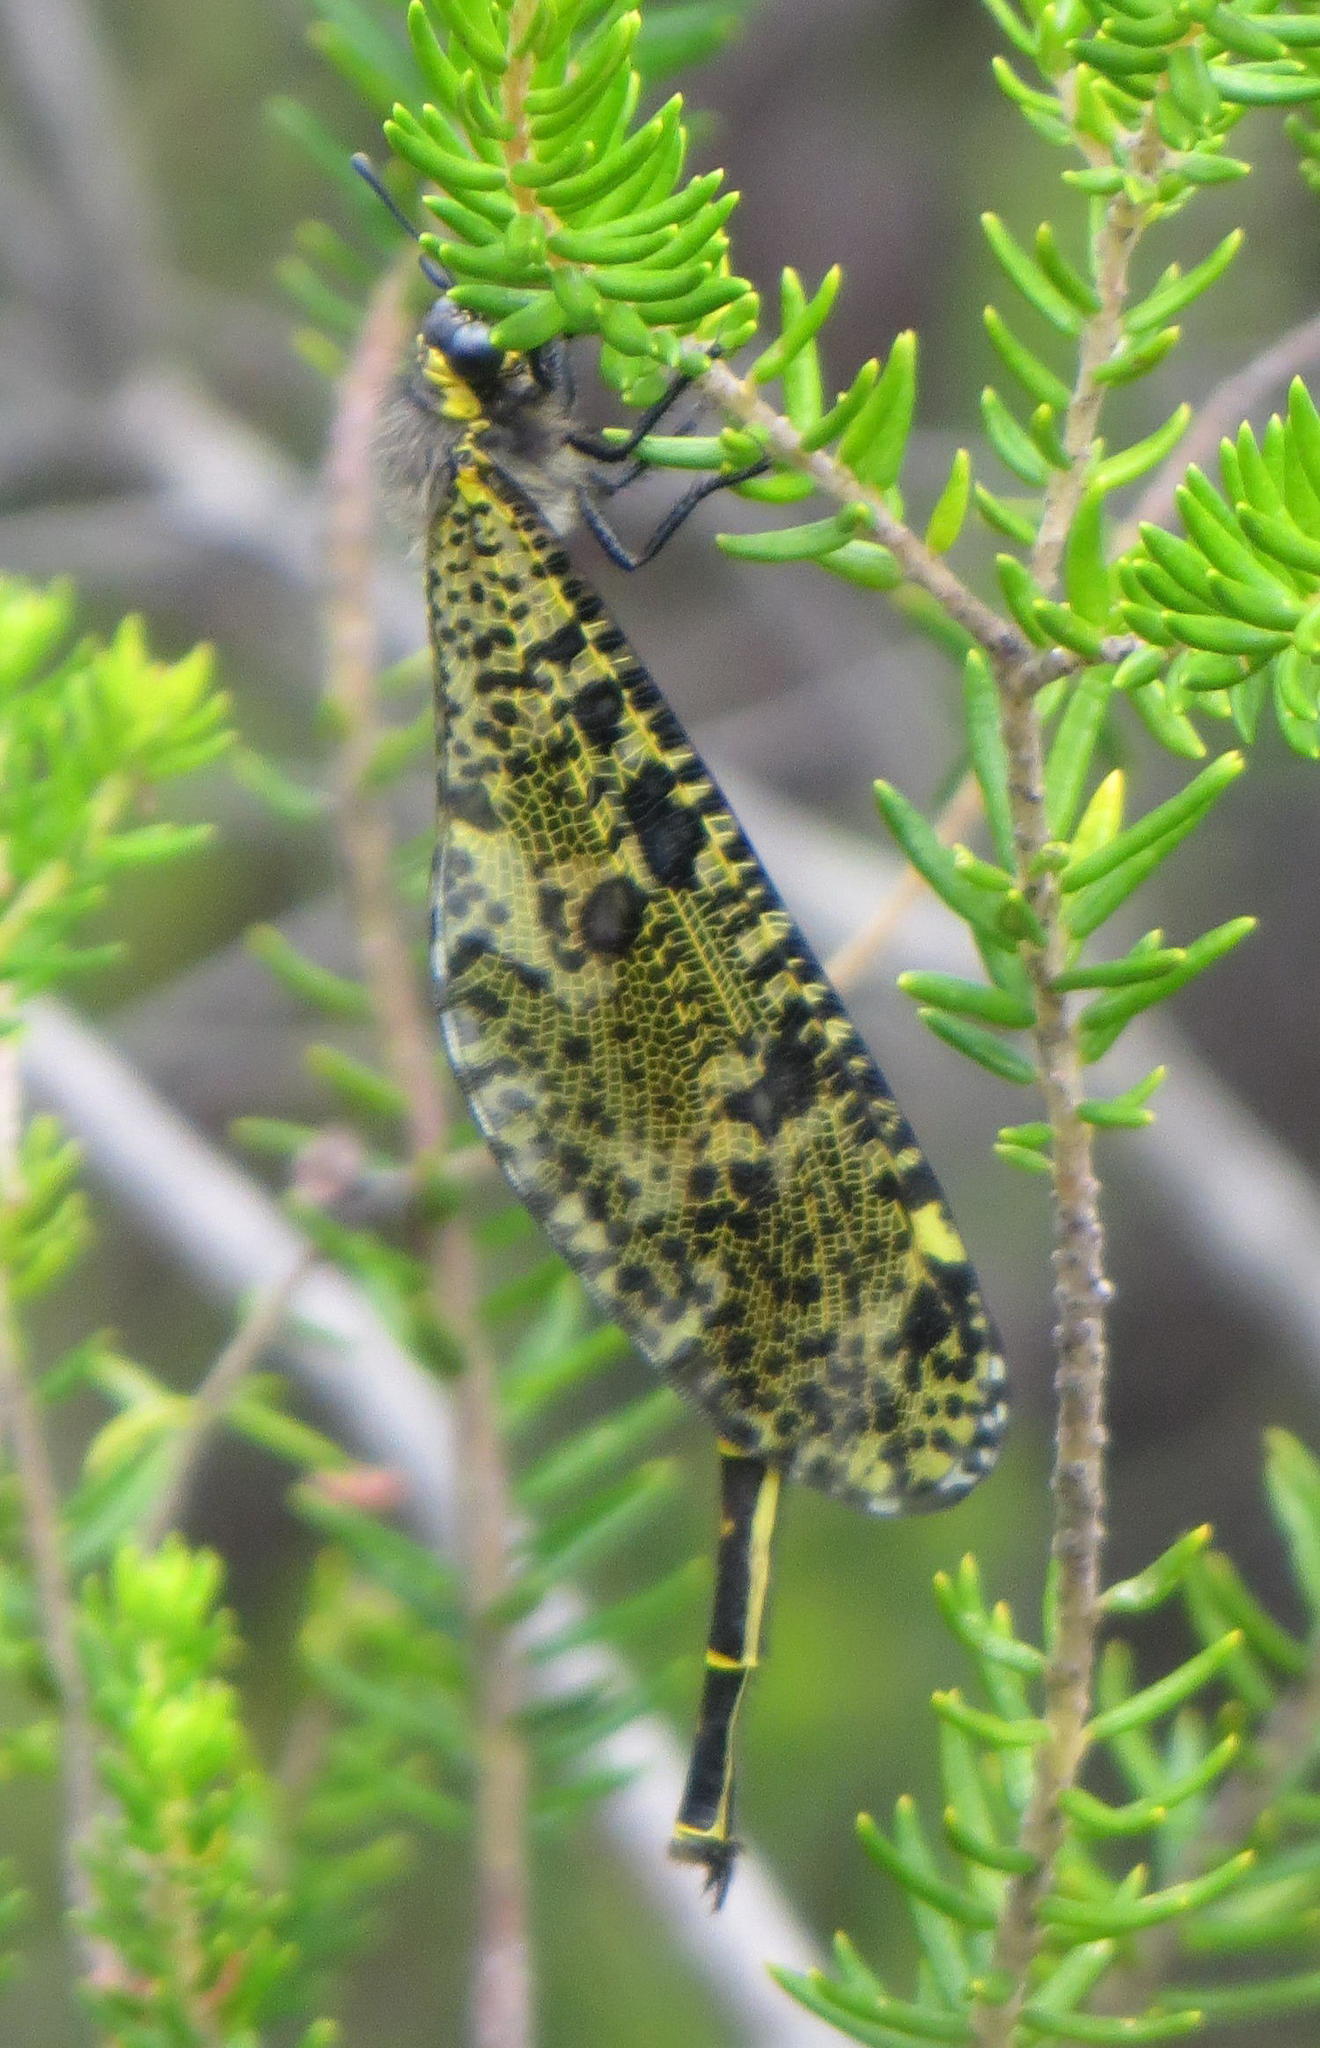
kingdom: Animalia
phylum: Arthropoda
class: Insecta
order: Neuroptera
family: Myrmeleontidae
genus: Palpares
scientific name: Palpares speciosus
